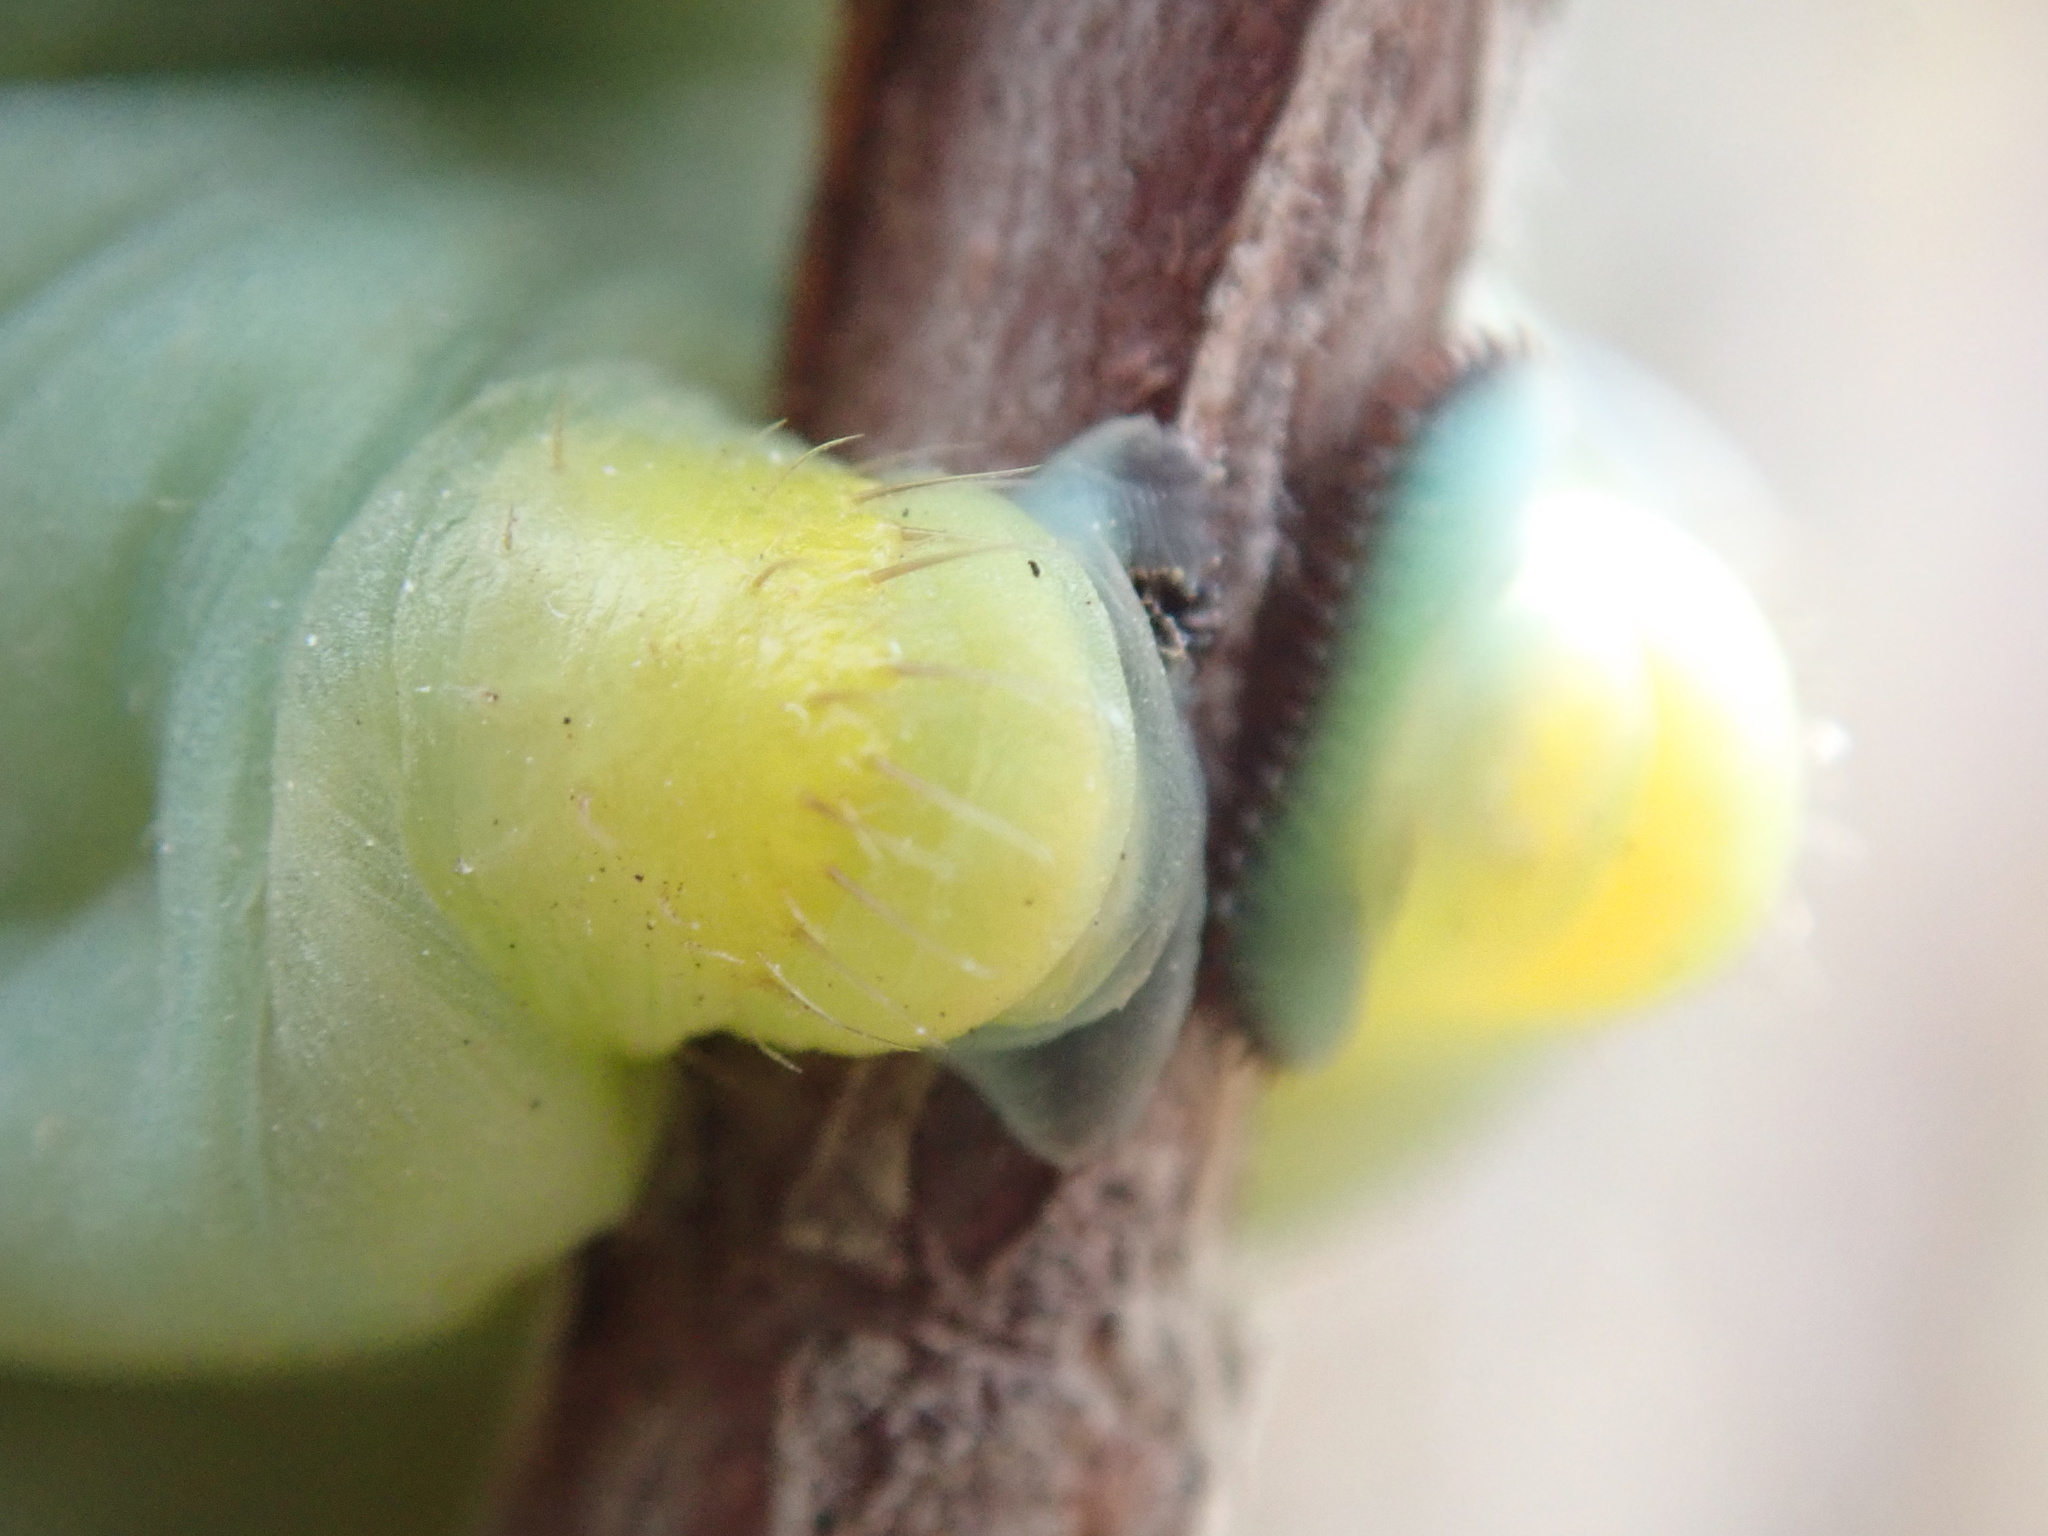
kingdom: Animalia
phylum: Arthropoda
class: Insecta
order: Lepidoptera
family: Saturniidae
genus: Hyalophora
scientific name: Hyalophora gloveri
